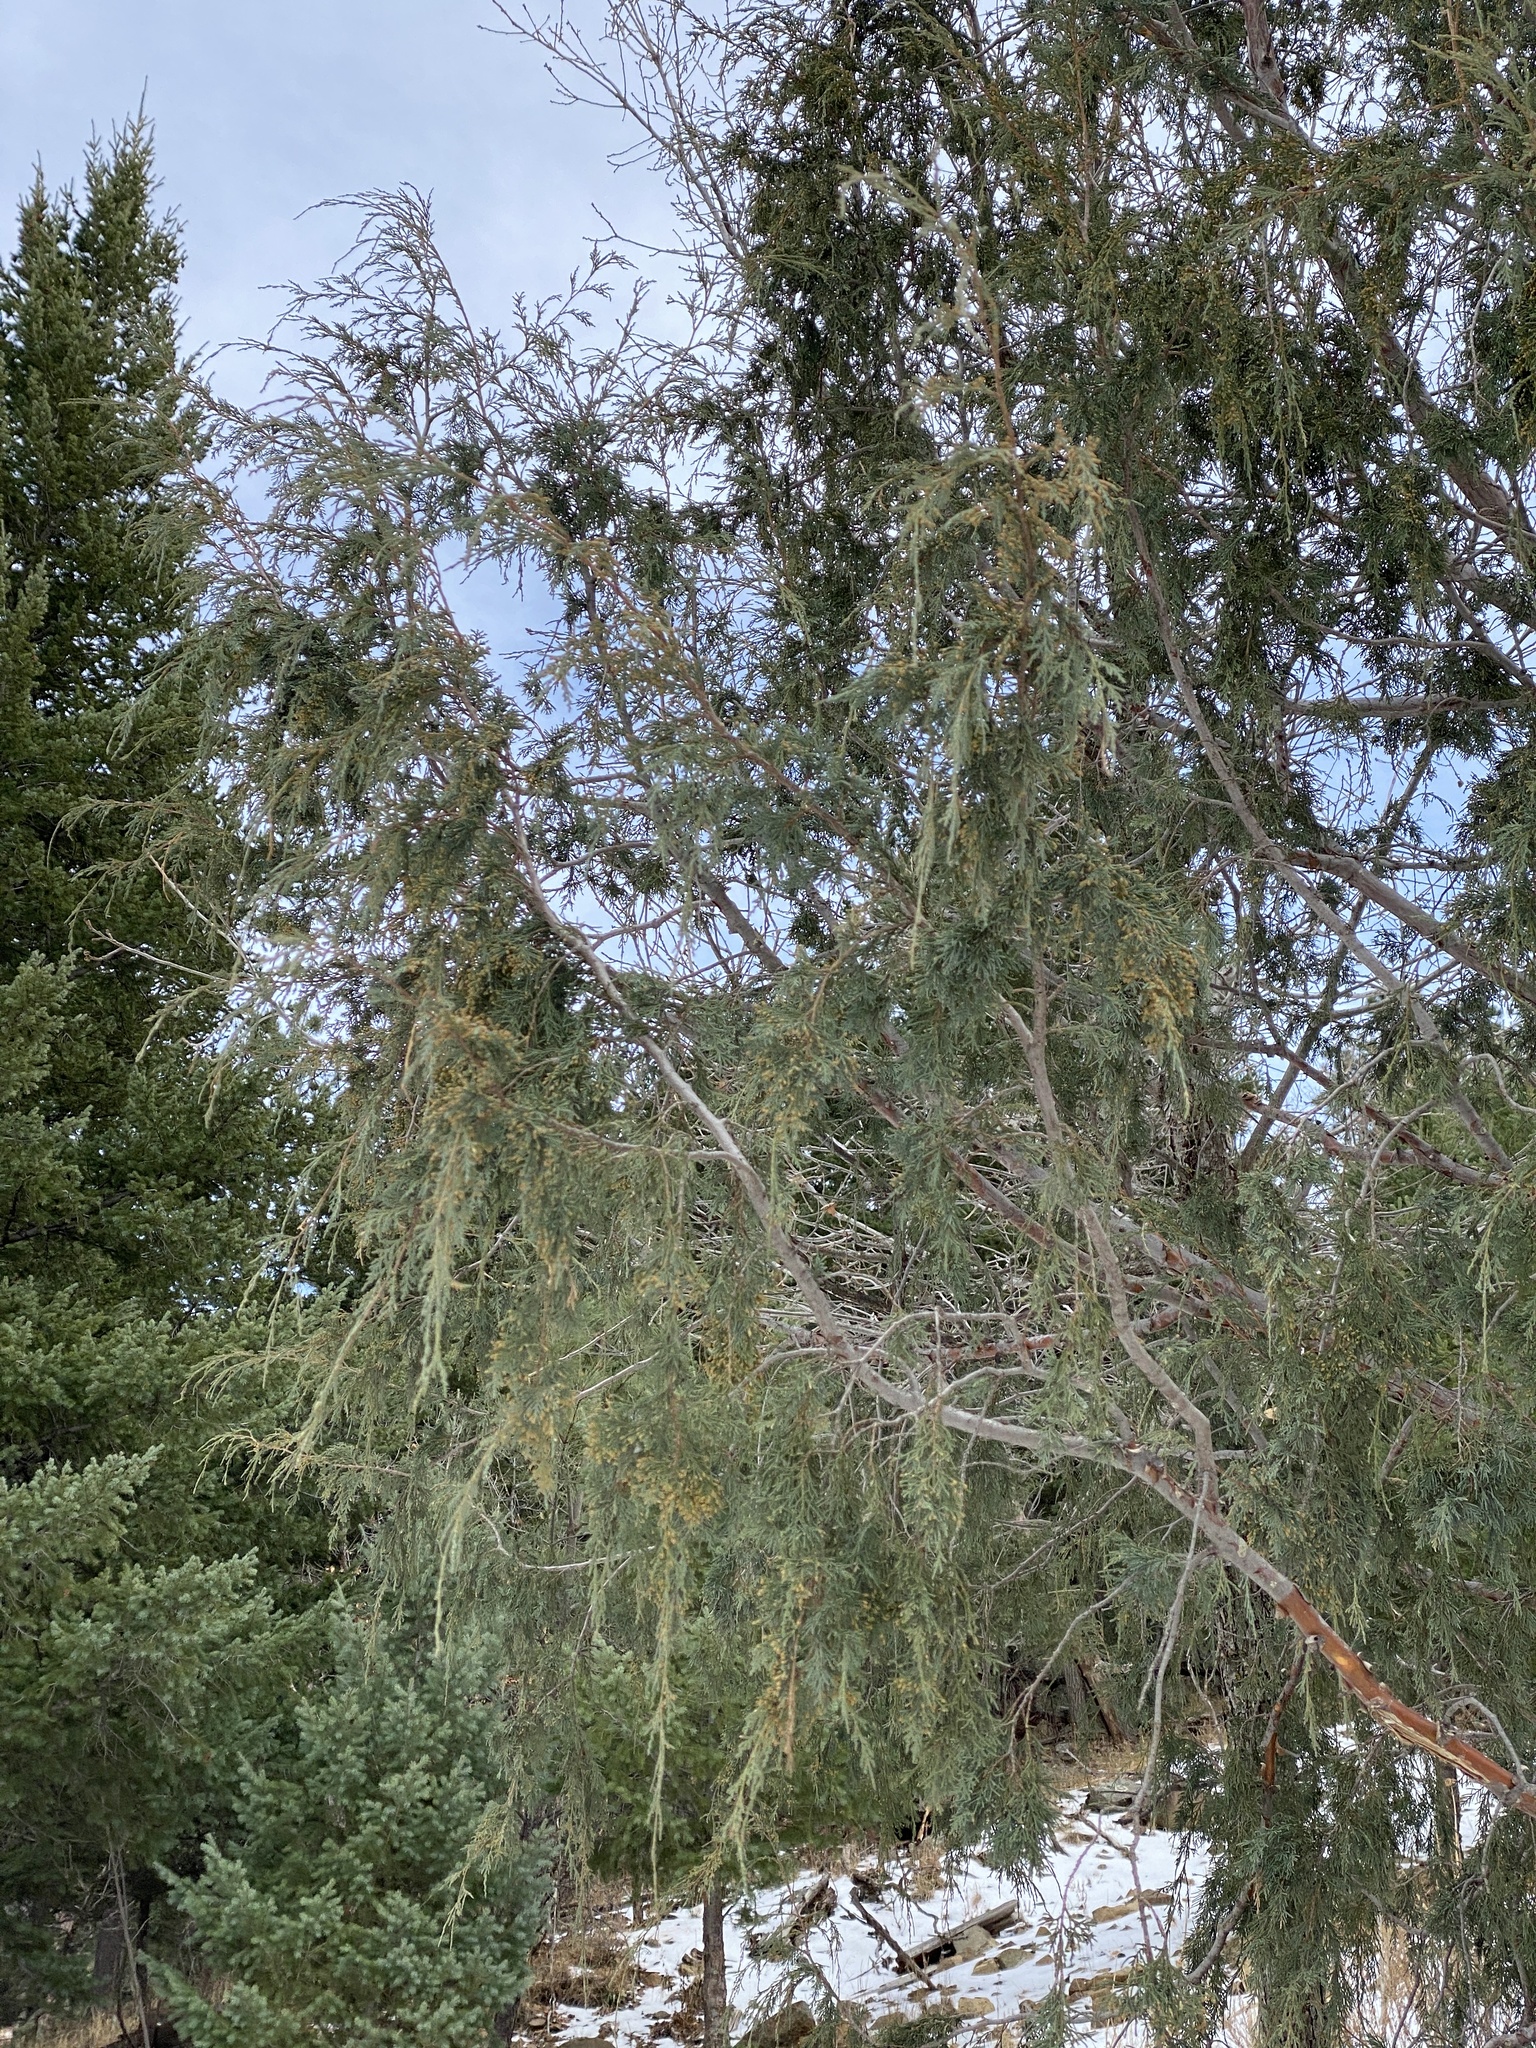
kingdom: Plantae
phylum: Tracheophyta
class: Pinopsida
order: Pinales
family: Cupressaceae
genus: Juniperus
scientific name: Juniperus scopulorum
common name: Rocky mountain juniper
